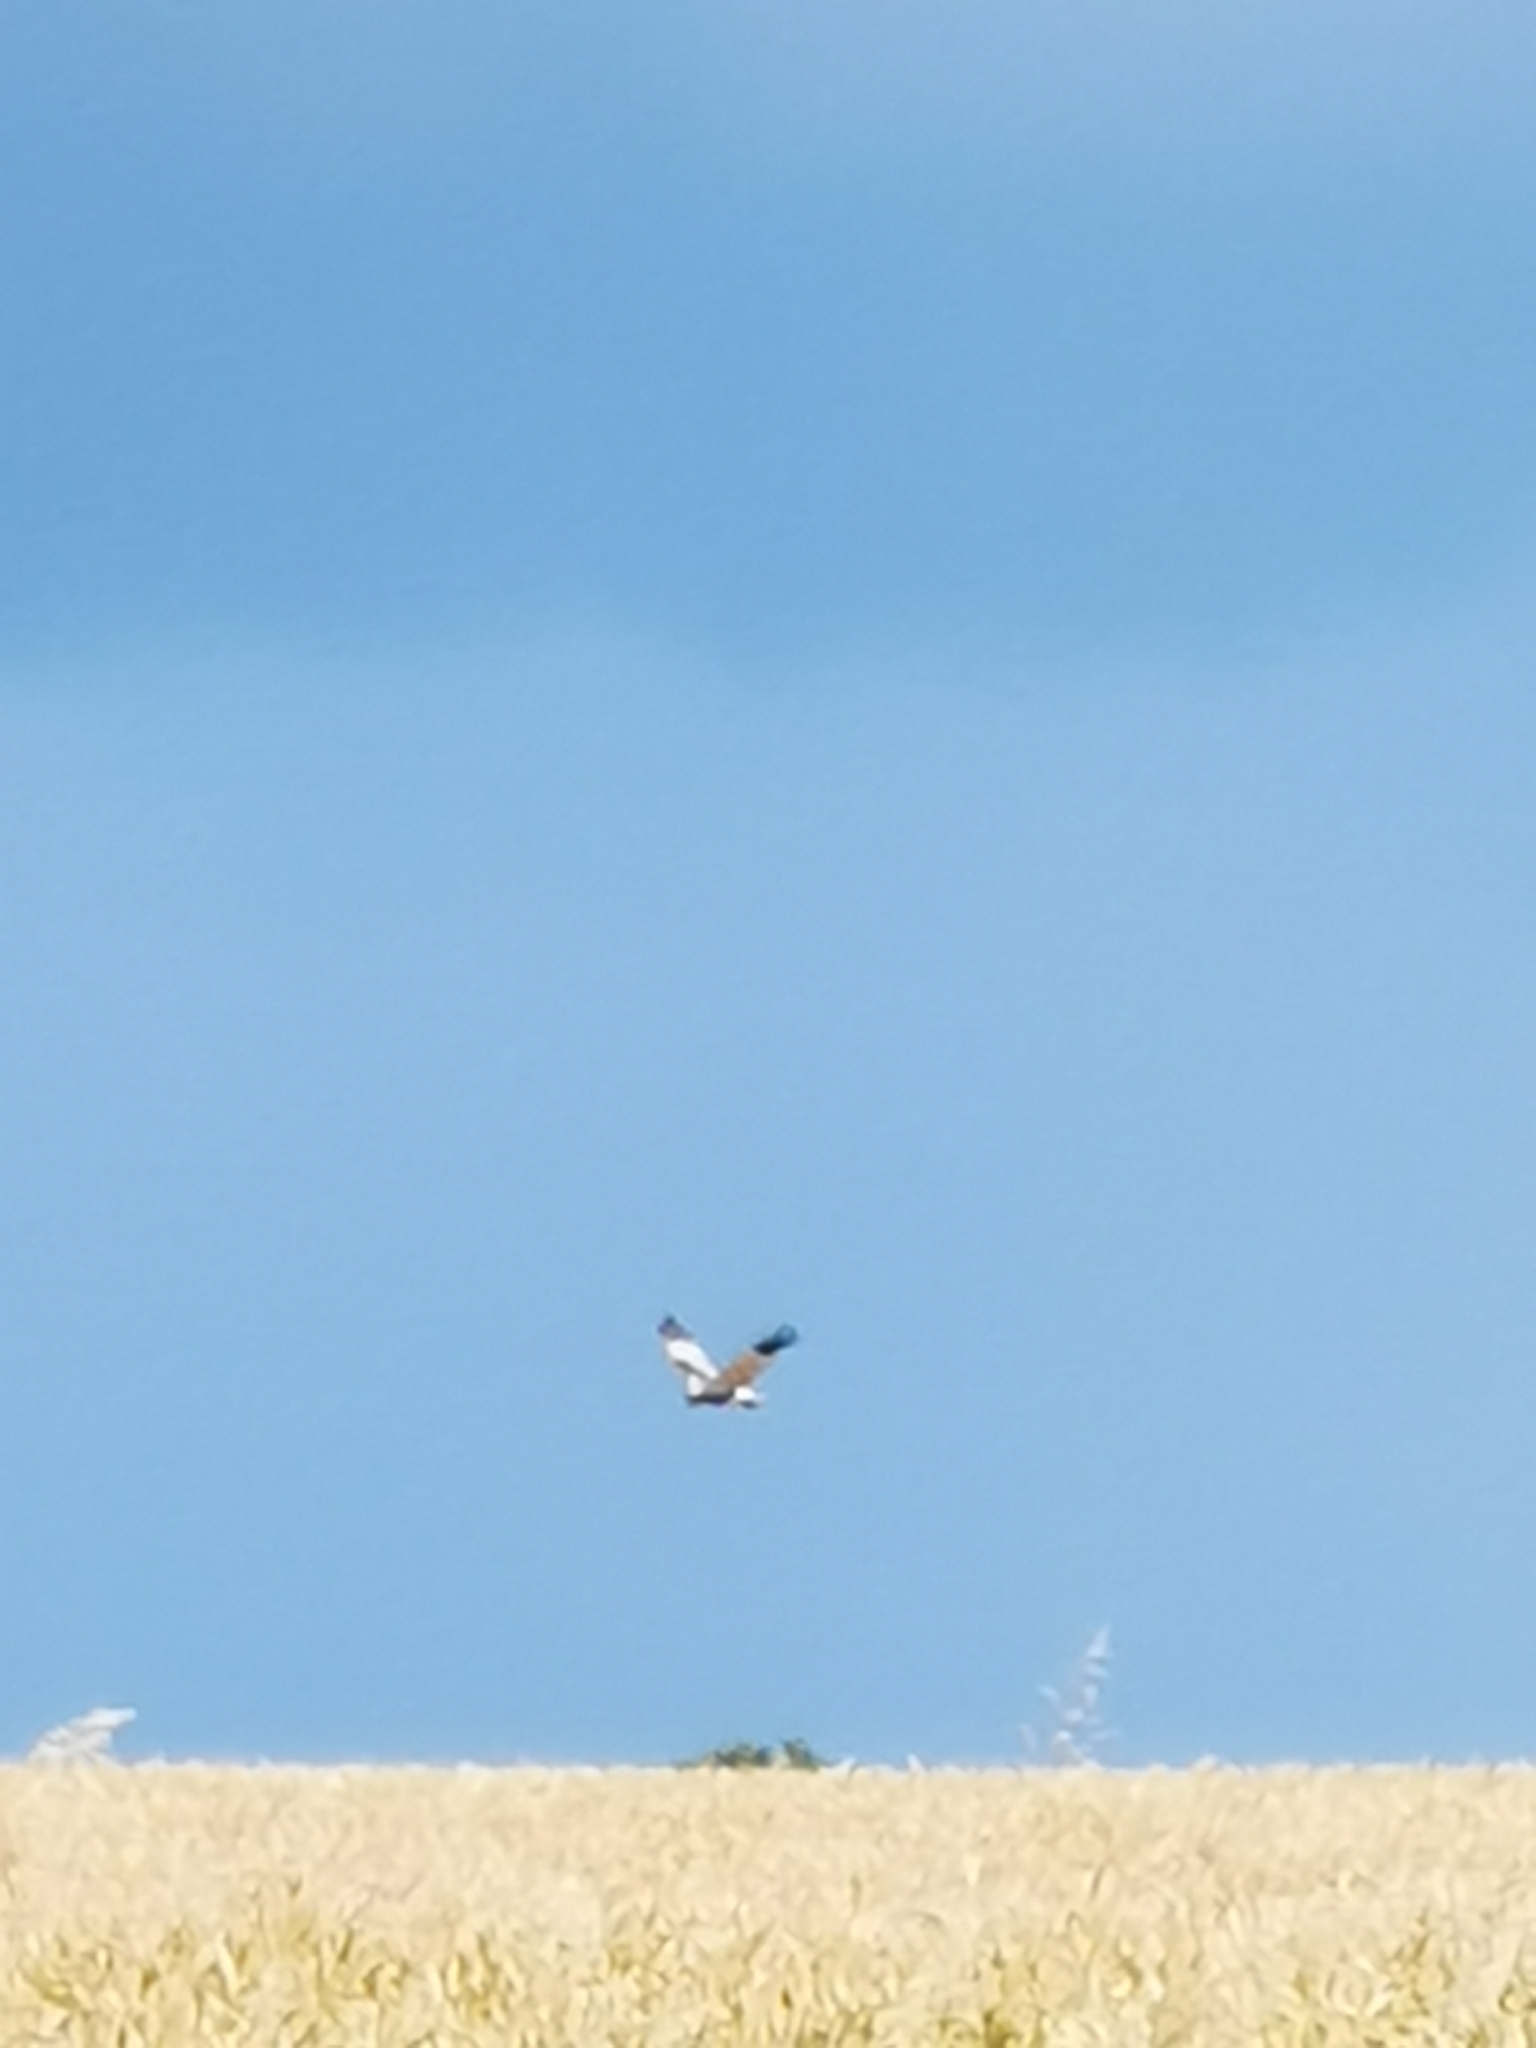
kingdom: Animalia
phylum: Chordata
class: Aves
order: Accipitriformes
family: Accipitridae
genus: Circus
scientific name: Circus aeruginosus
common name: Western marsh harrier
